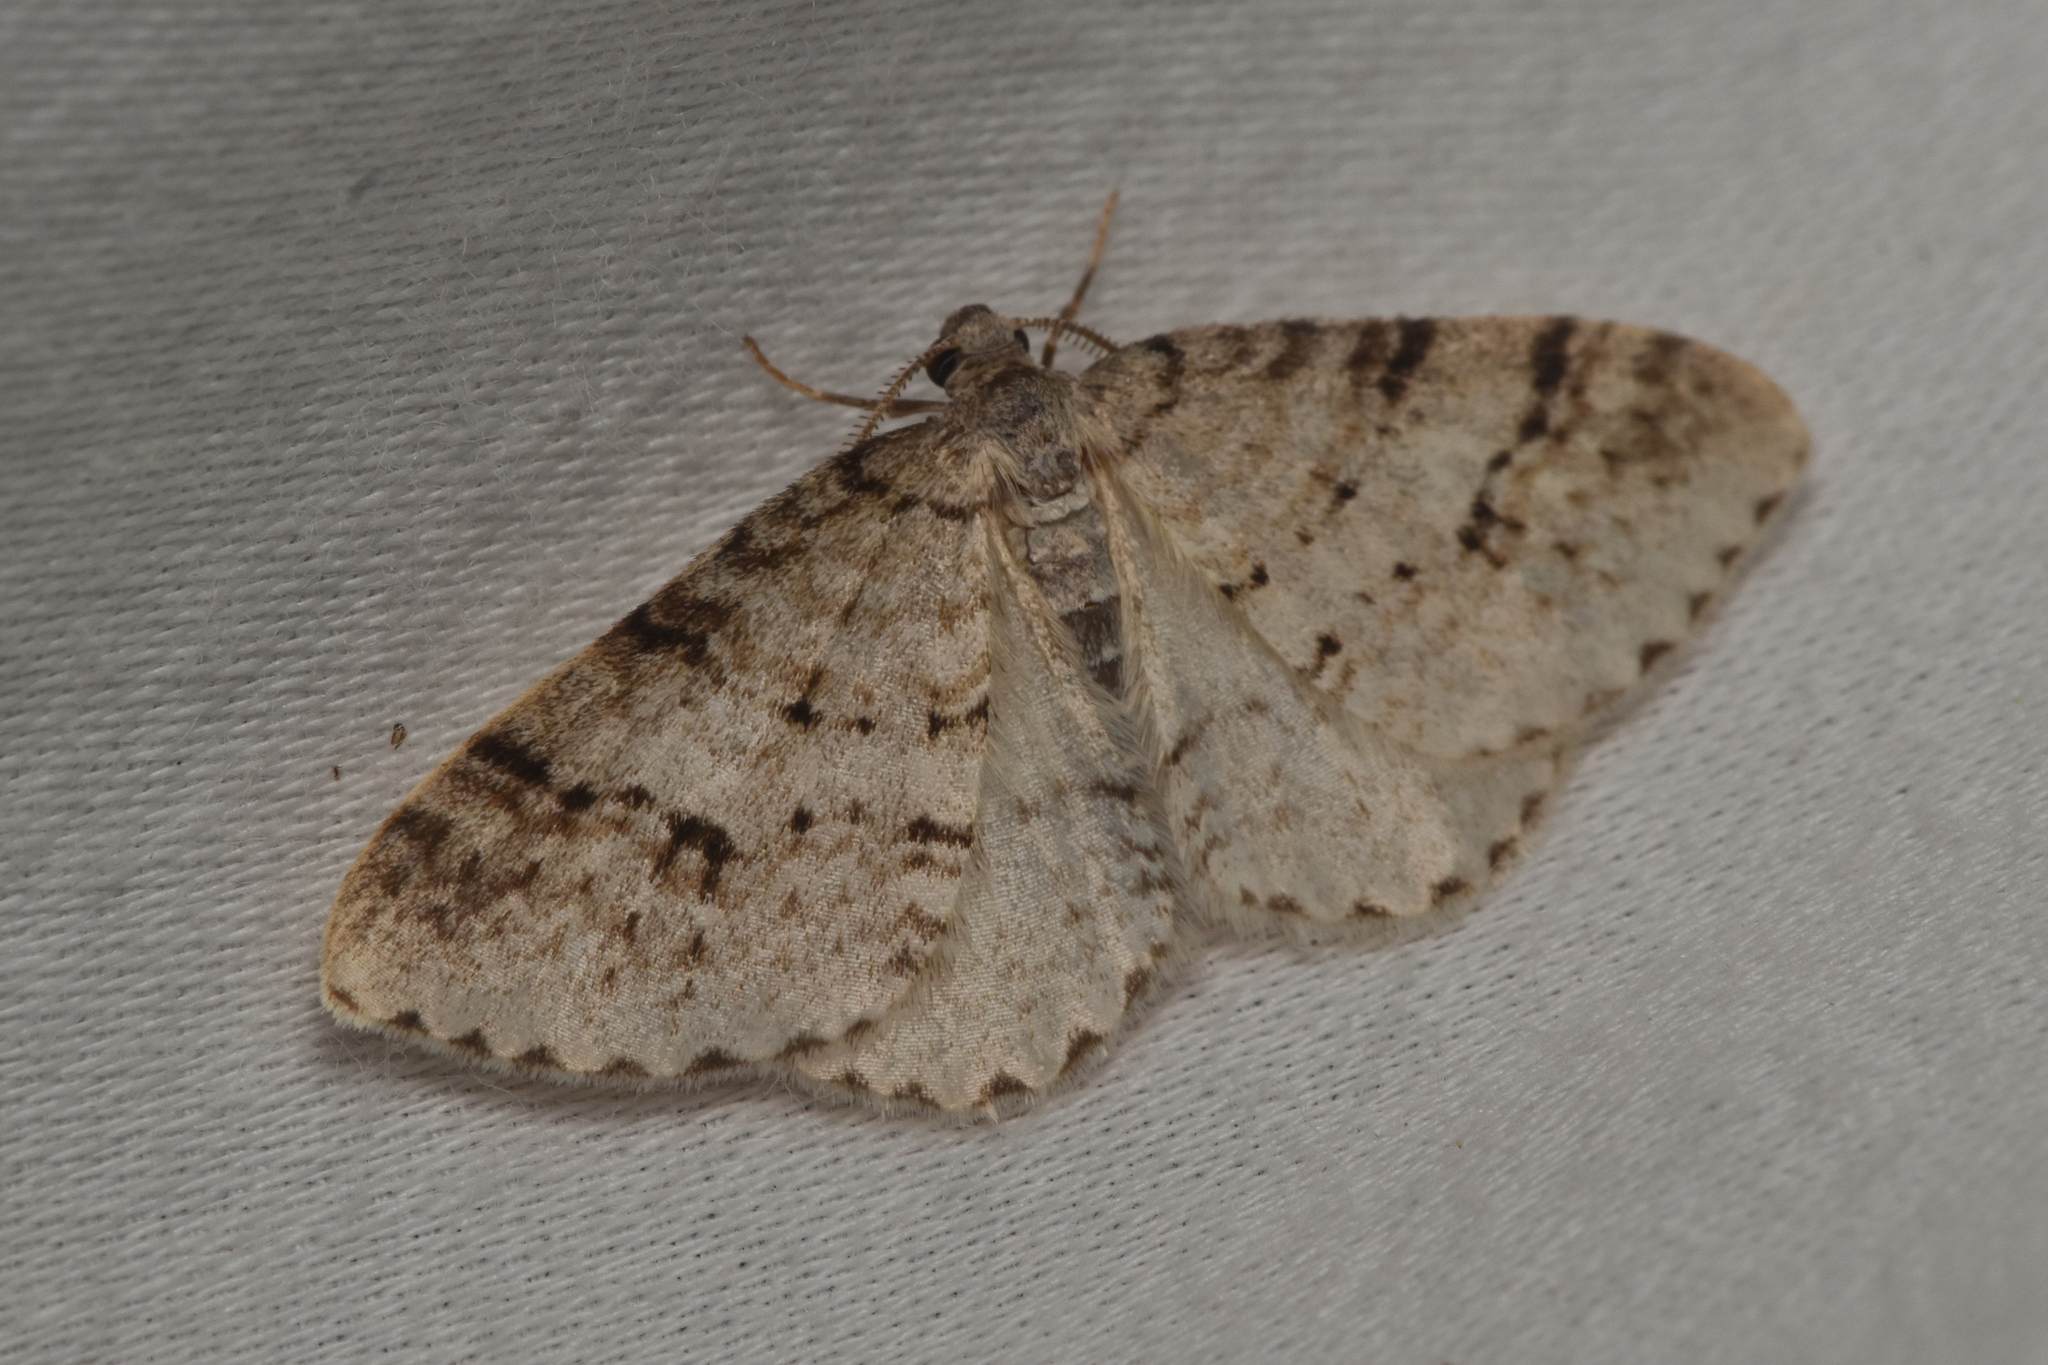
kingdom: Animalia
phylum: Arthropoda
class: Insecta
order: Lepidoptera
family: Geometridae
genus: Venusia
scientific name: Venusia cambrica
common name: Welsh wave
